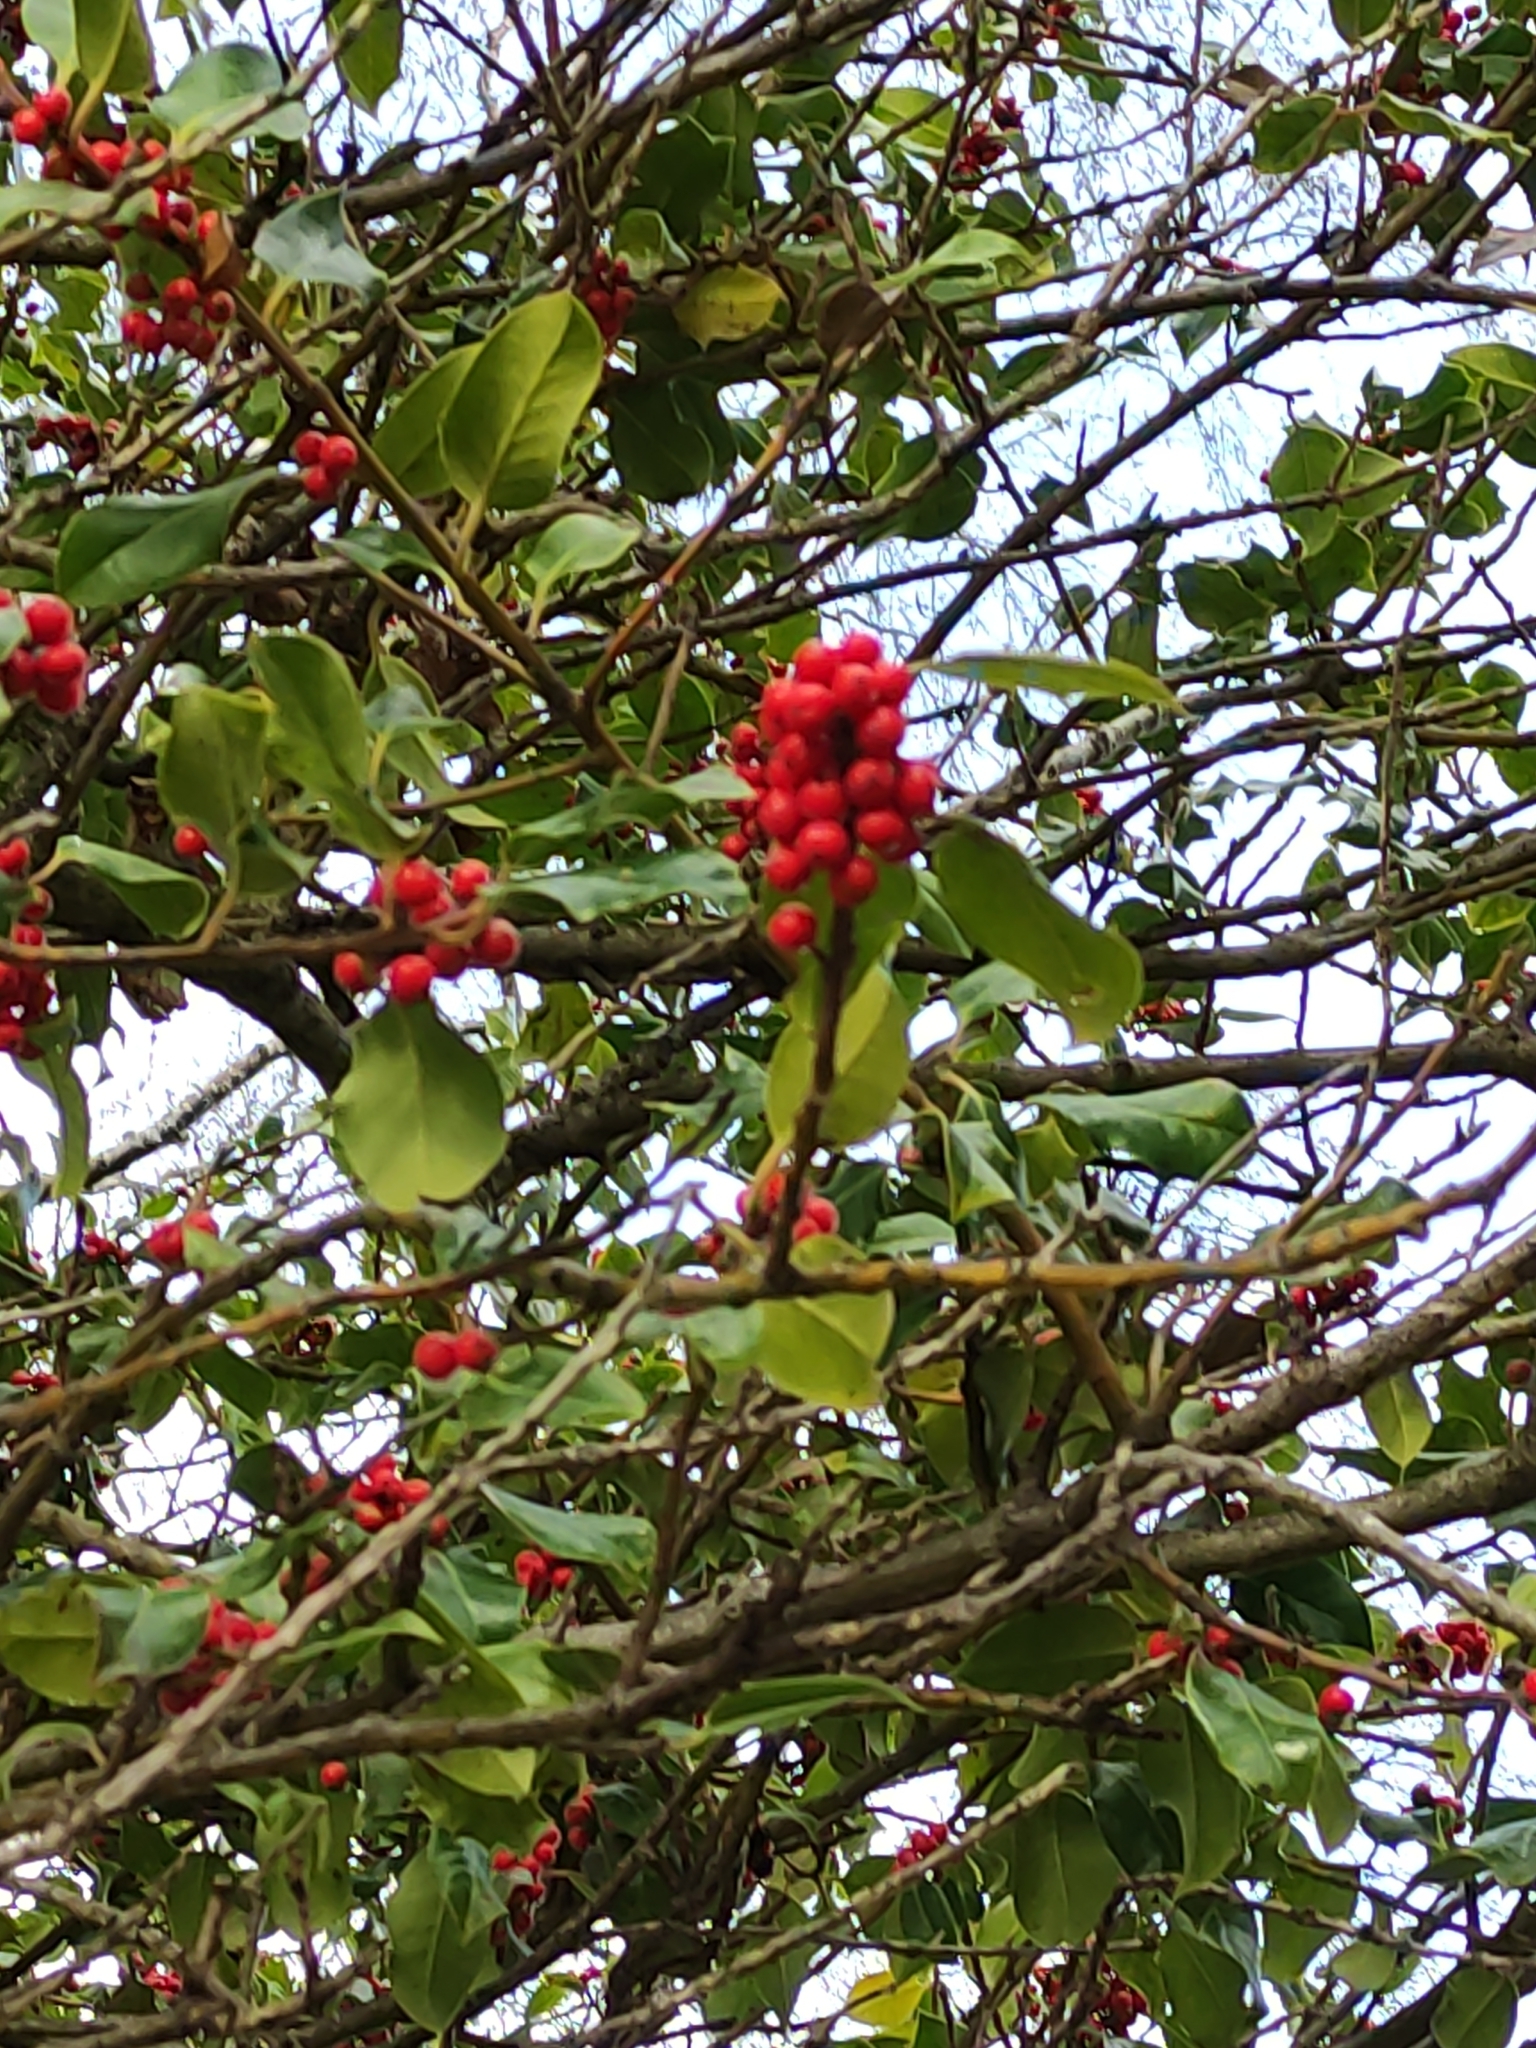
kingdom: Plantae
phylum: Tracheophyta
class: Magnoliopsida
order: Aquifoliales
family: Aquifoliaceae
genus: Ilex
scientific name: Ilex aquifolium
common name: English holly
